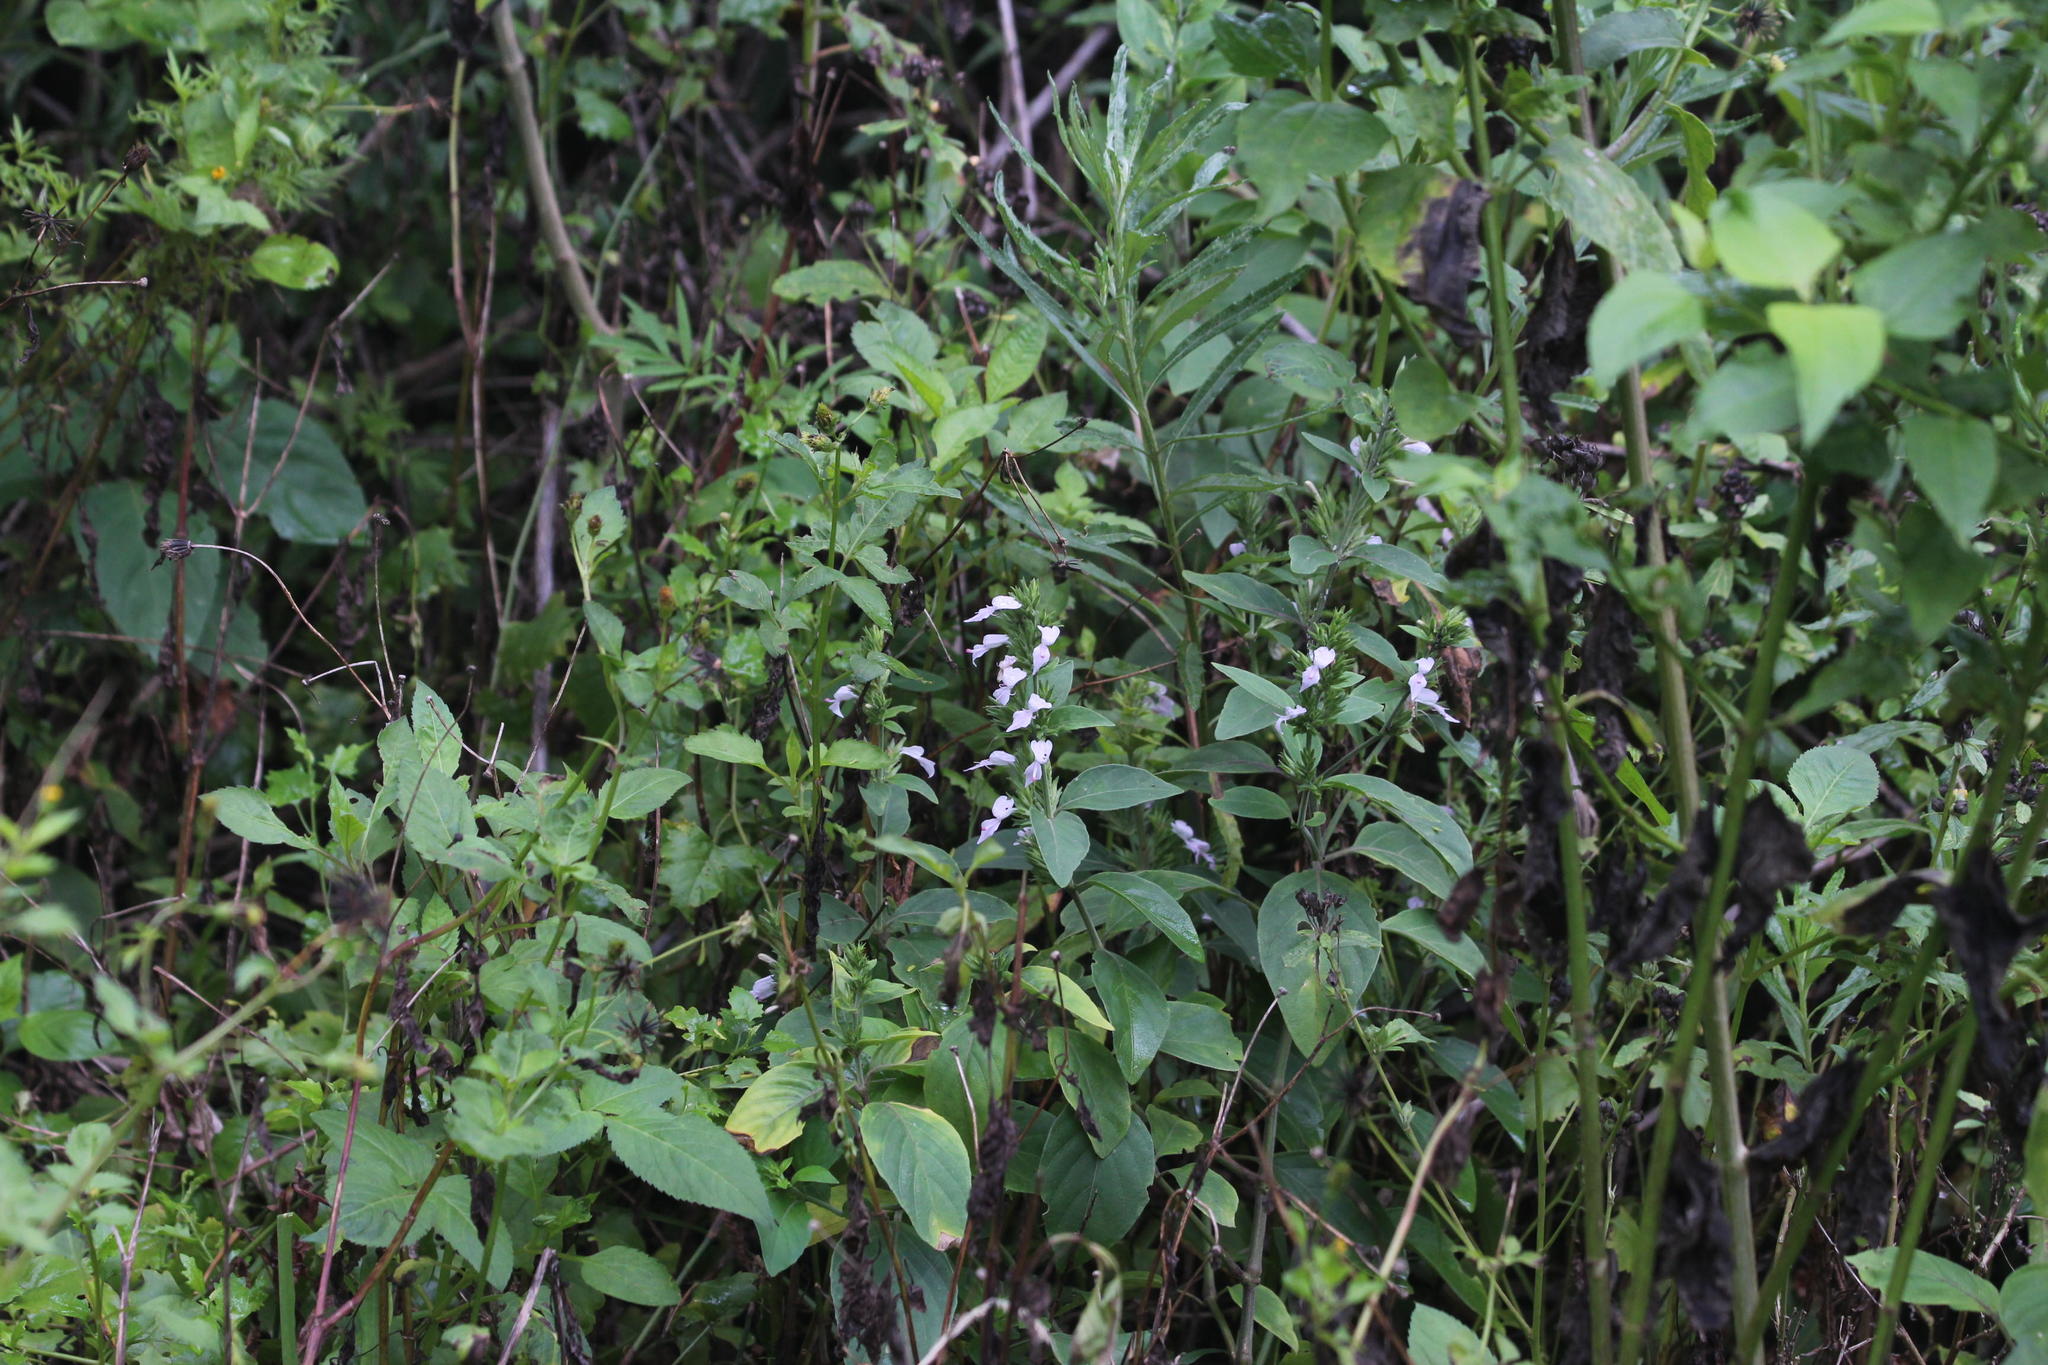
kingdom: Plantae
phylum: Tracheophyta
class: Magnoliopsida
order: Lamiales
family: Acanthaceae
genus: Hypoestes
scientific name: Hypoestes forskaolii
